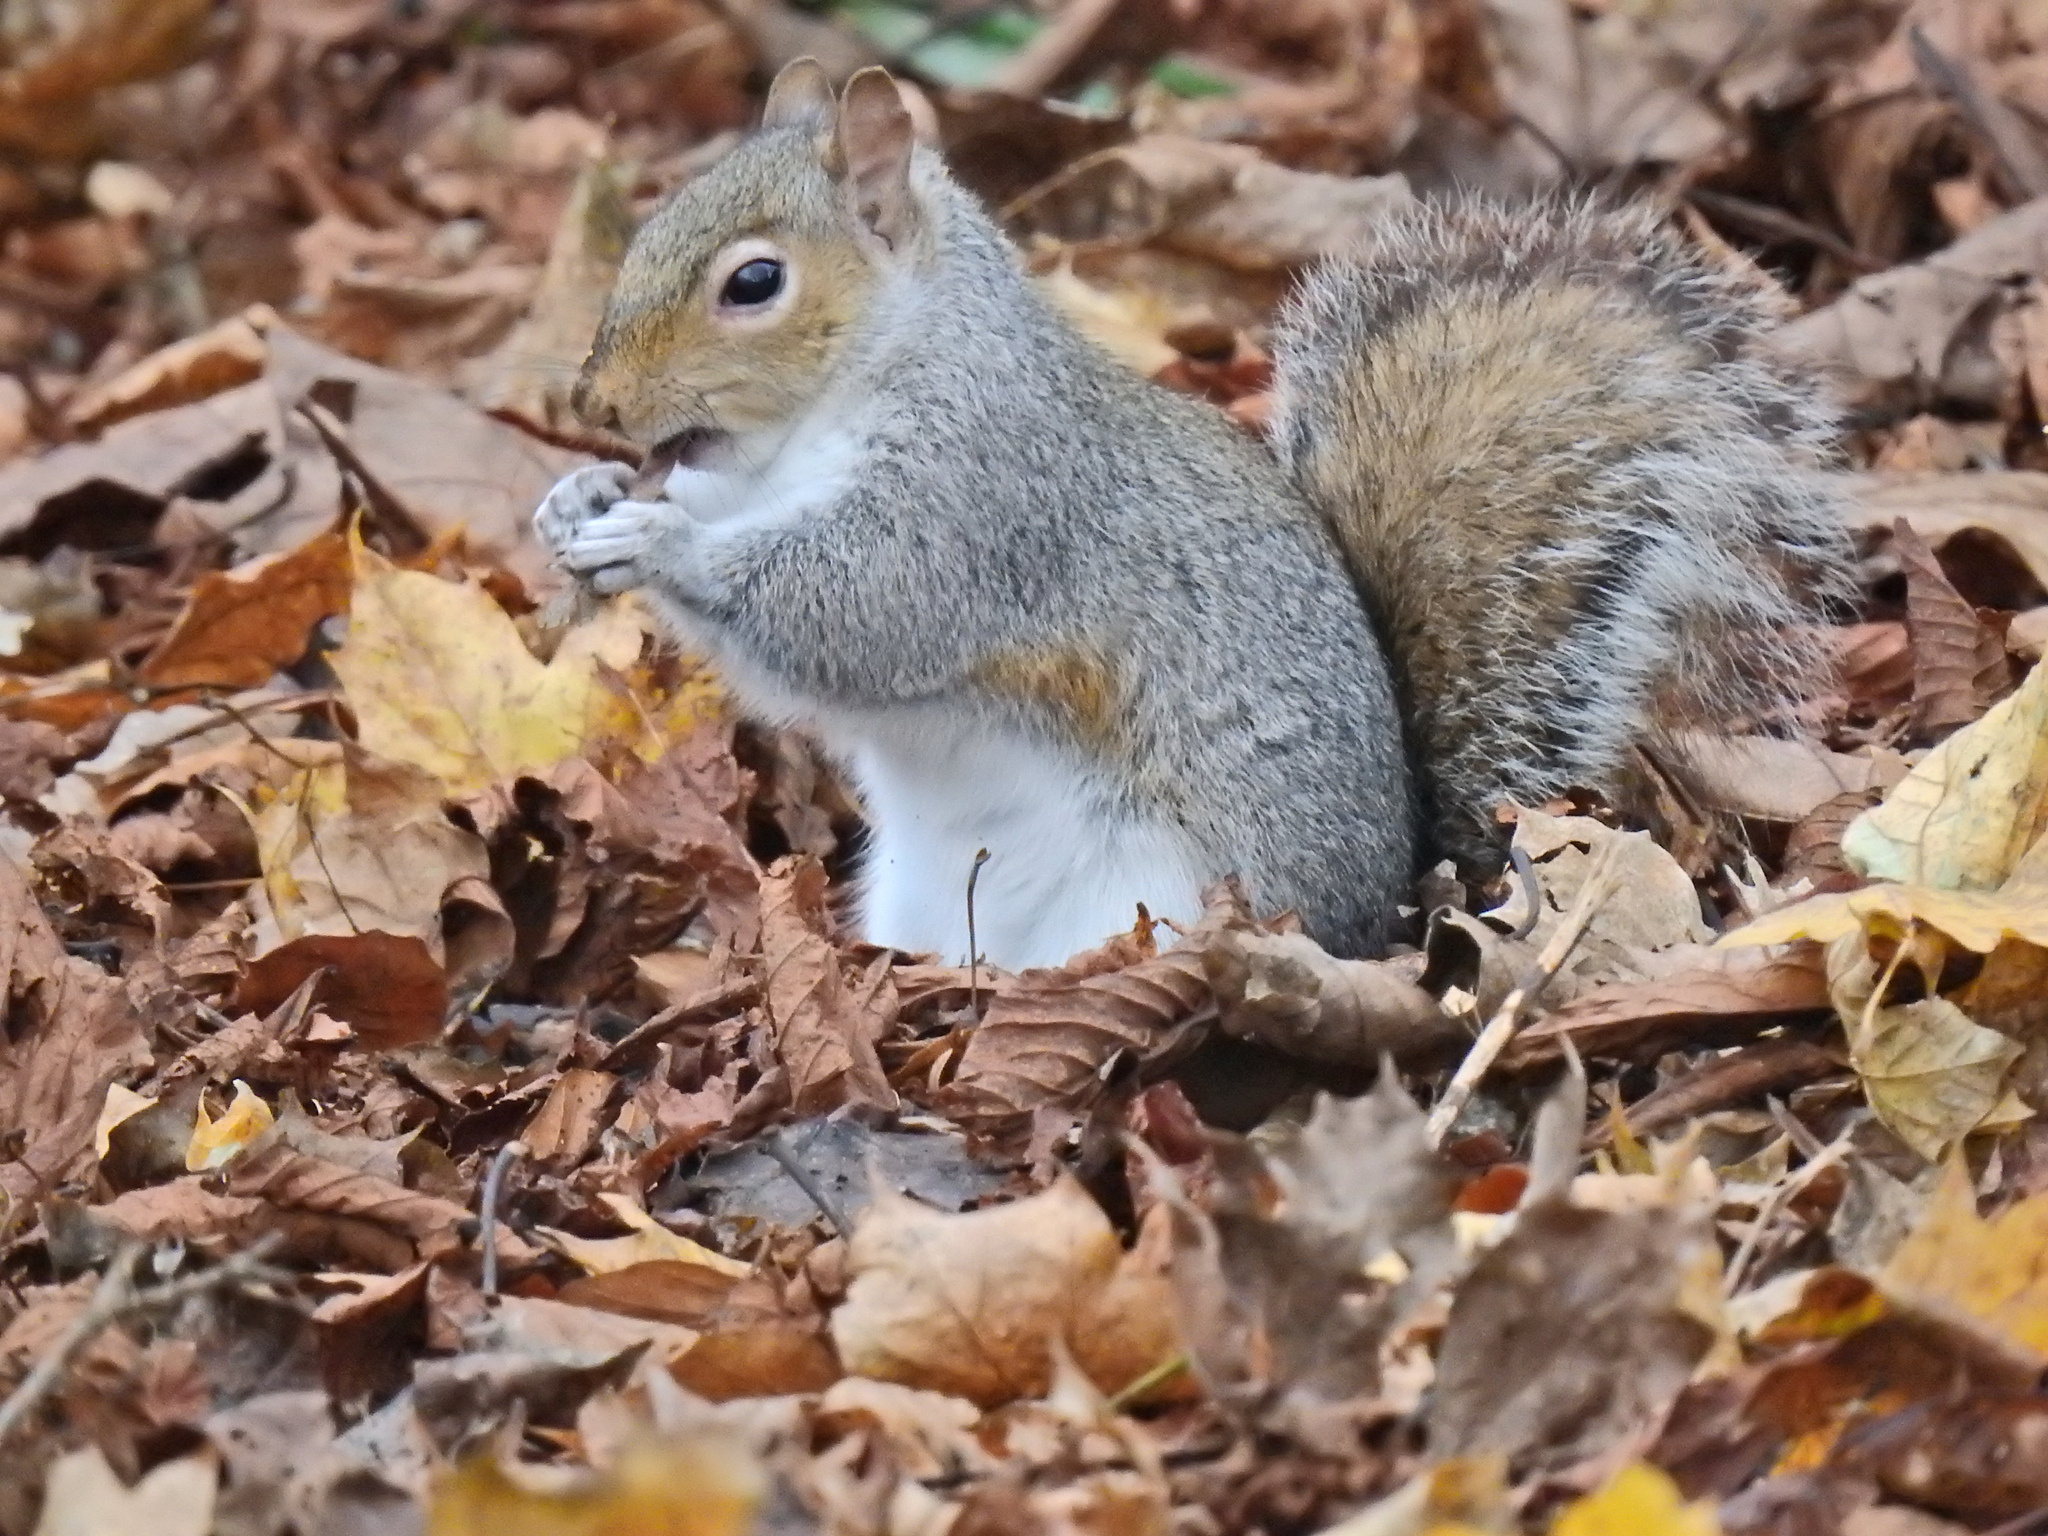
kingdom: Animalia
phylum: Chordata
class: Mammalia
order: Rodentia
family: Sciuridae
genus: Sciurus
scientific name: Sciurus carolinensis
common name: Eastern gray squirrel
